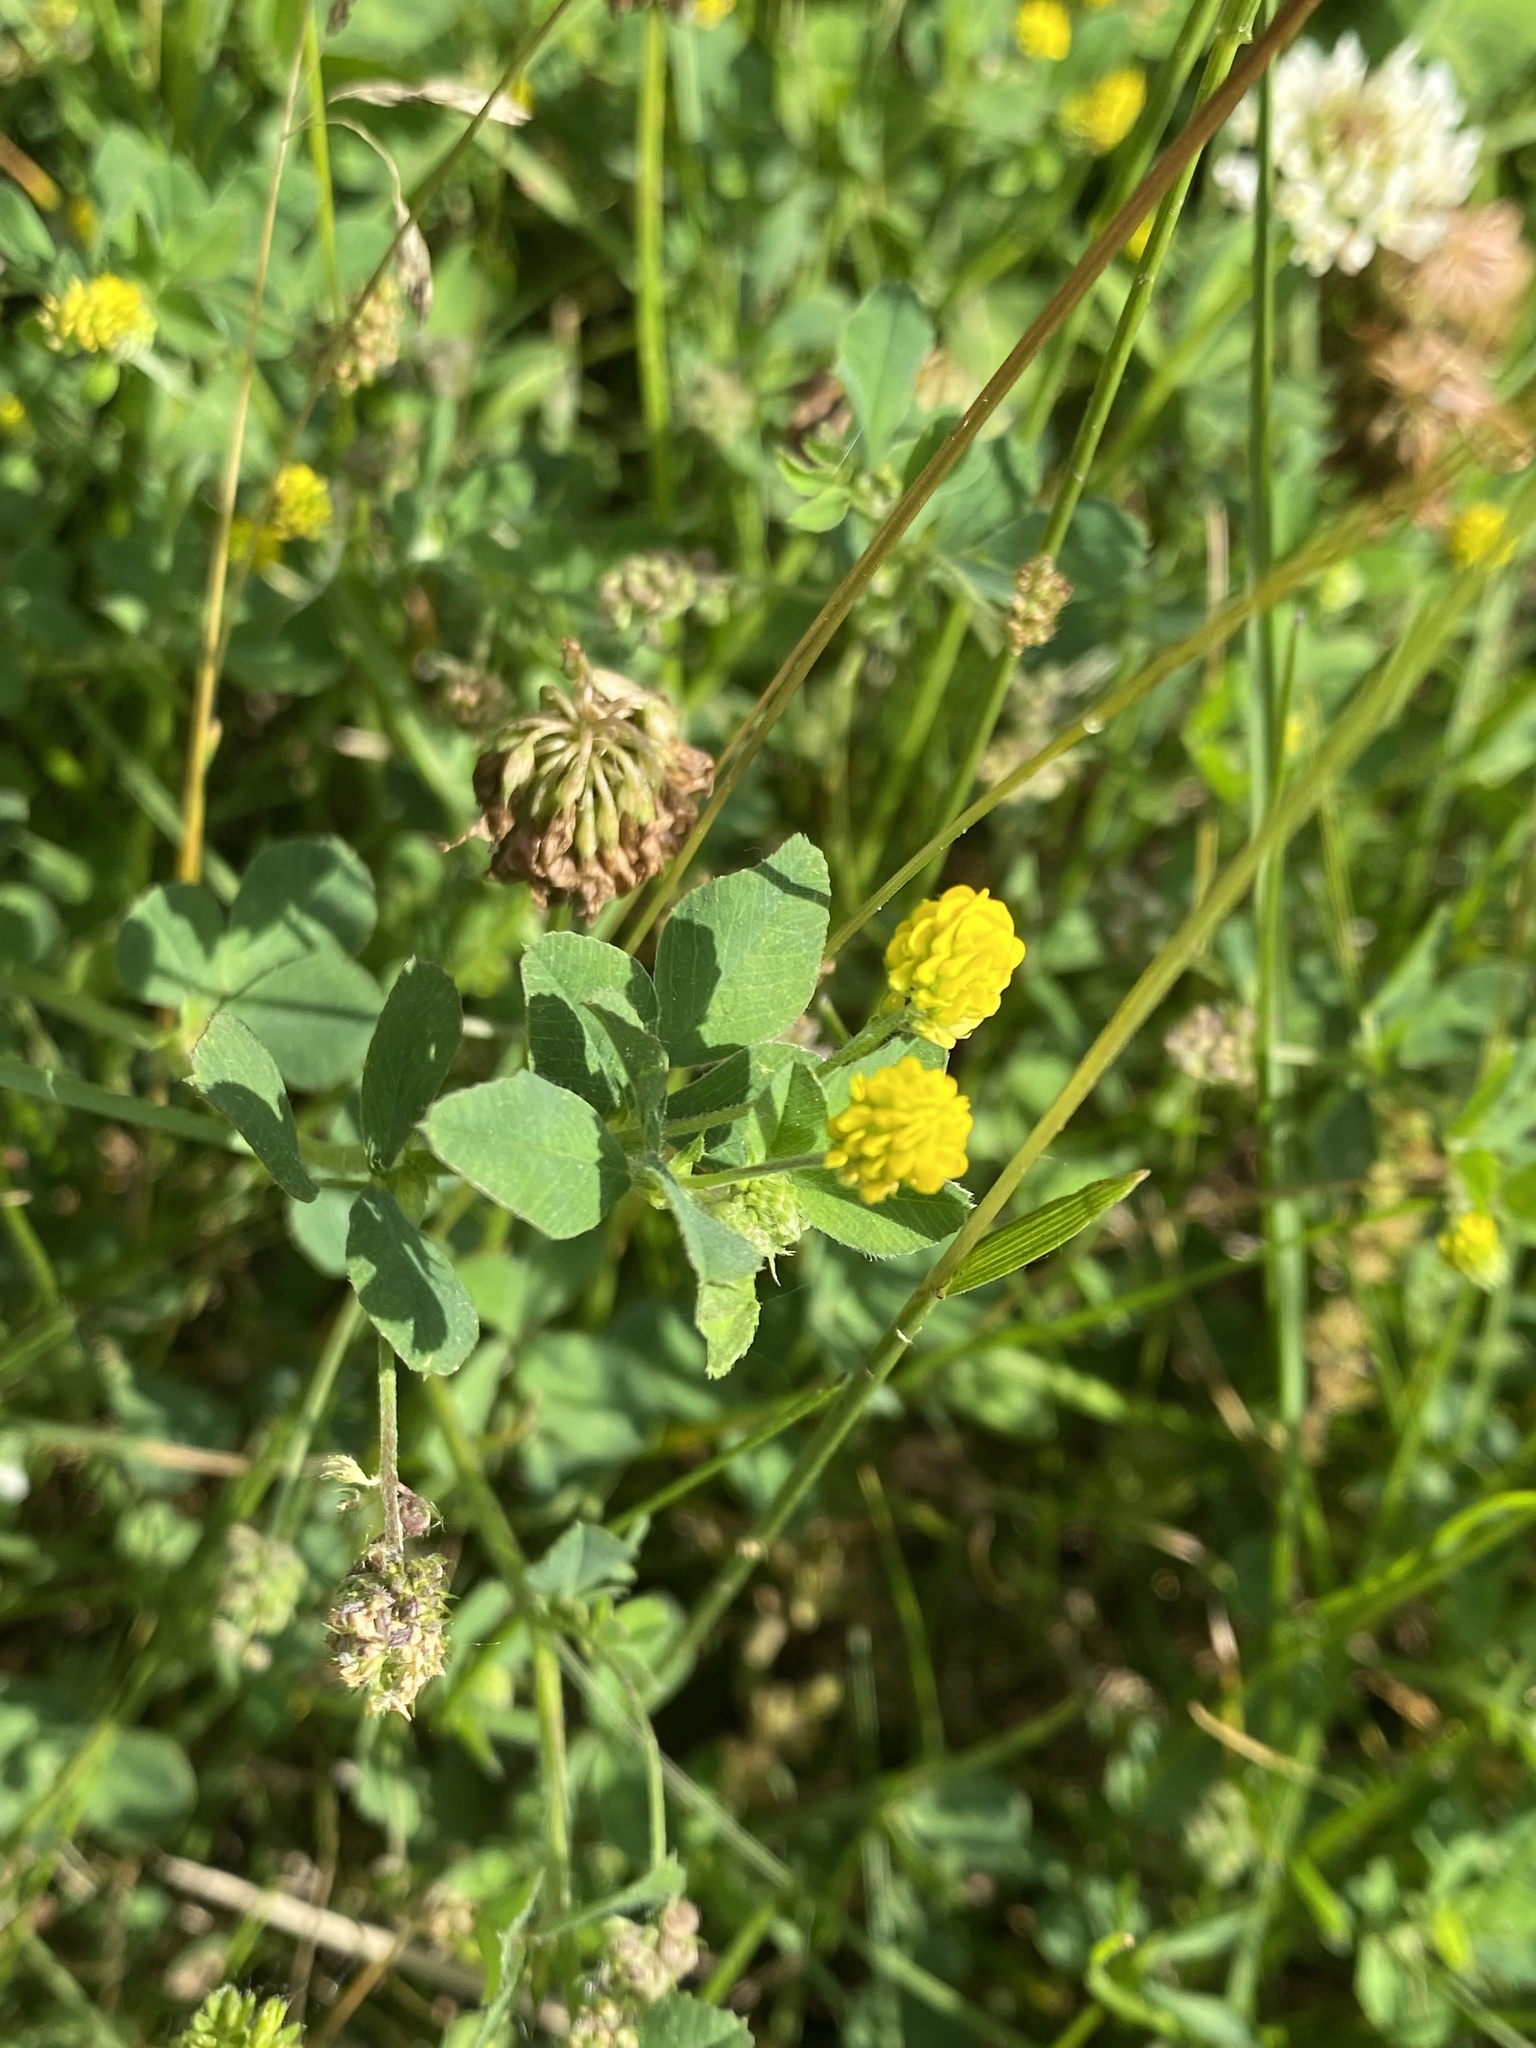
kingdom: Plantae
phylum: Tracheophyta
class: Magnoliopsida
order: Fabales
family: Fabaceae
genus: Medicago
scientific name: Medicago lupulina
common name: Black medick
